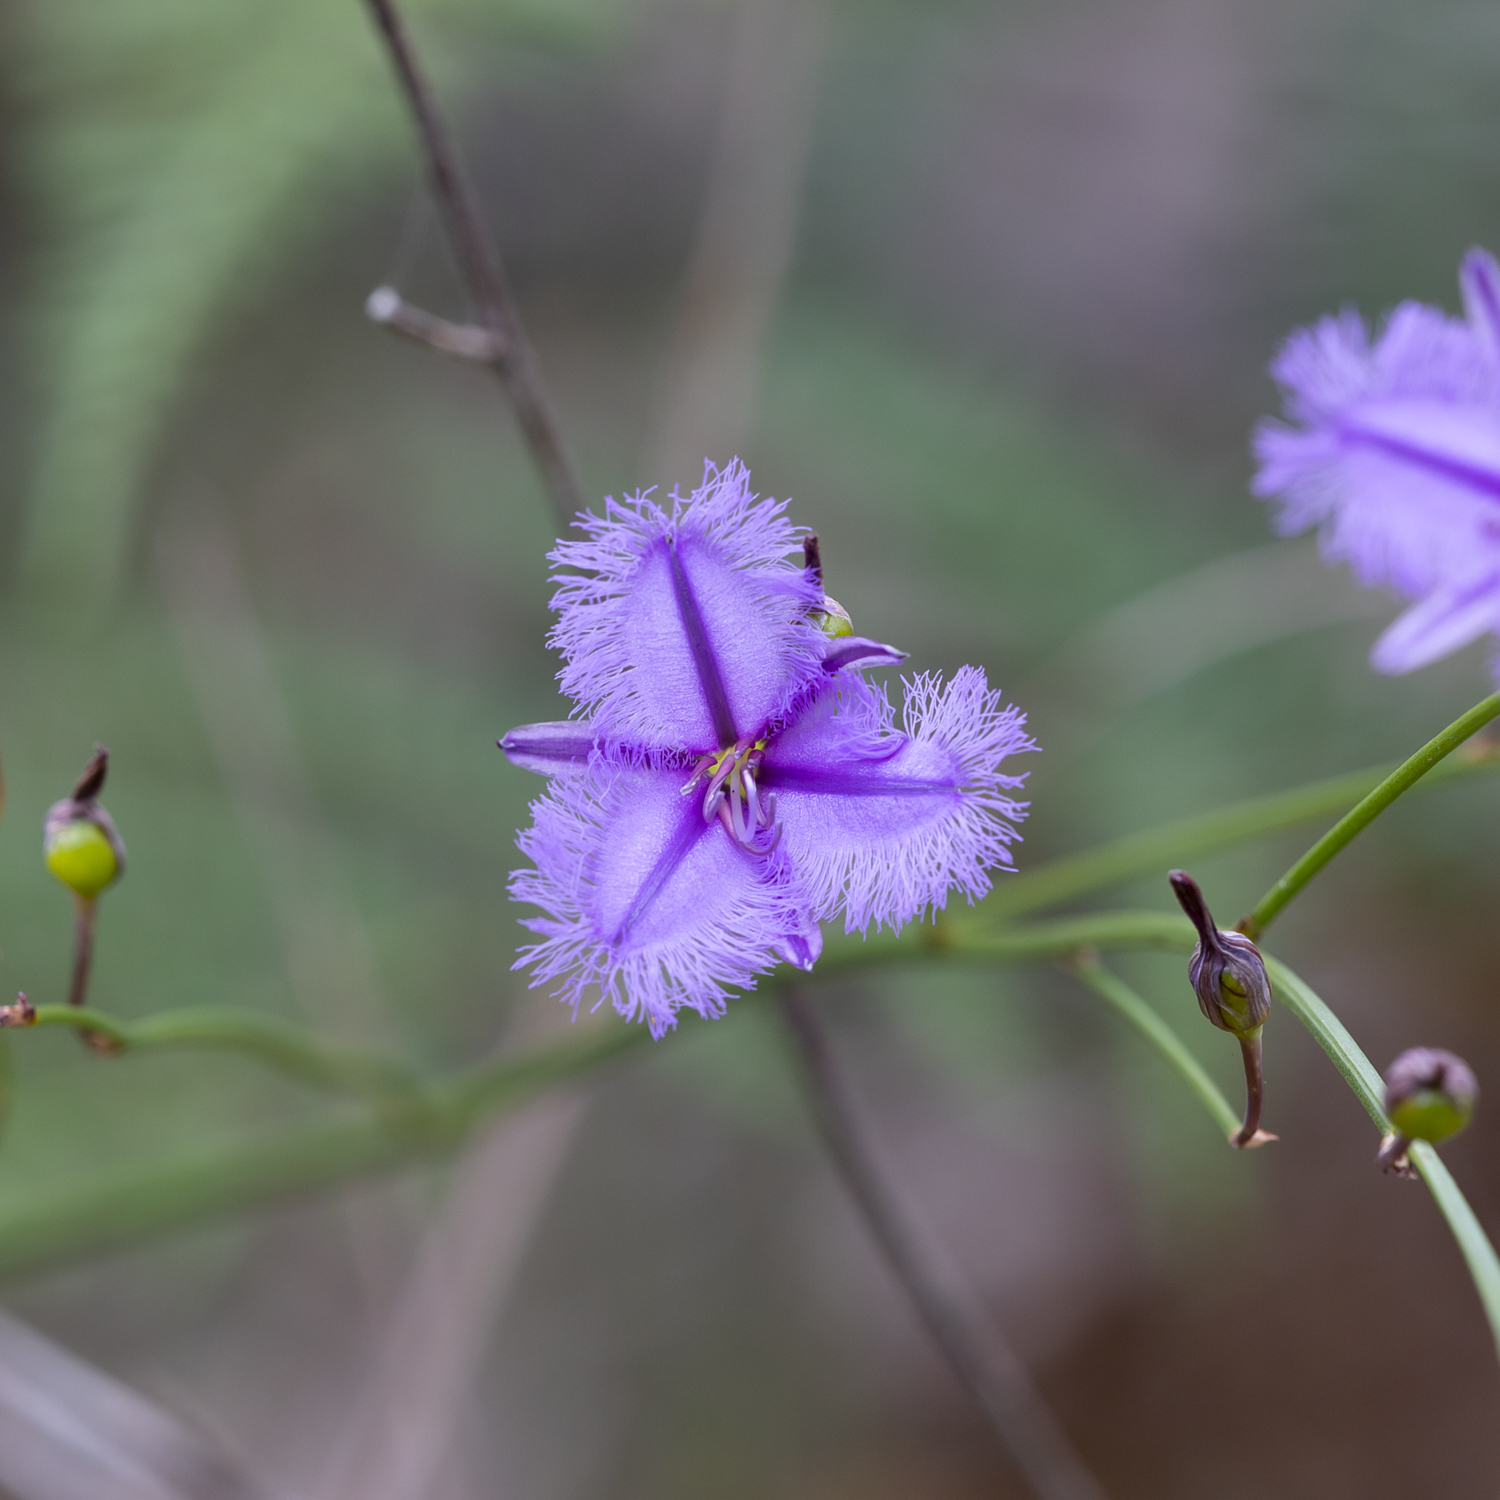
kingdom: Plantae
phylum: Tracheophyta
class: Liliopsida
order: Asparagales
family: Asparagaceae
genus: Thysanotus
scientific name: Thysanotus racemoides
